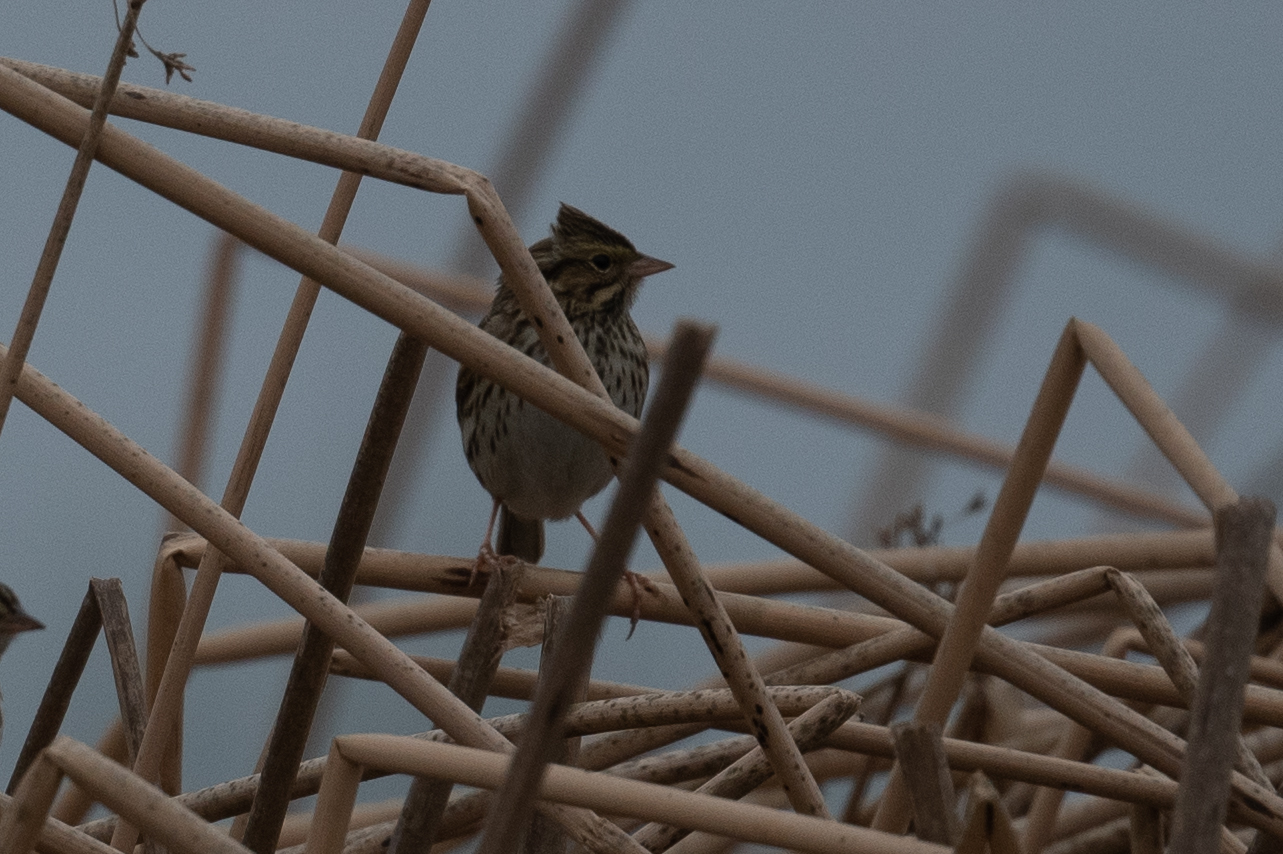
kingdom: Animalia
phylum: Chordata
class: Aves
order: Passeriformes
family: Passerellidae
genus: Passerculus
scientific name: Passerculus sandwichensis
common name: Savannah sparrow
